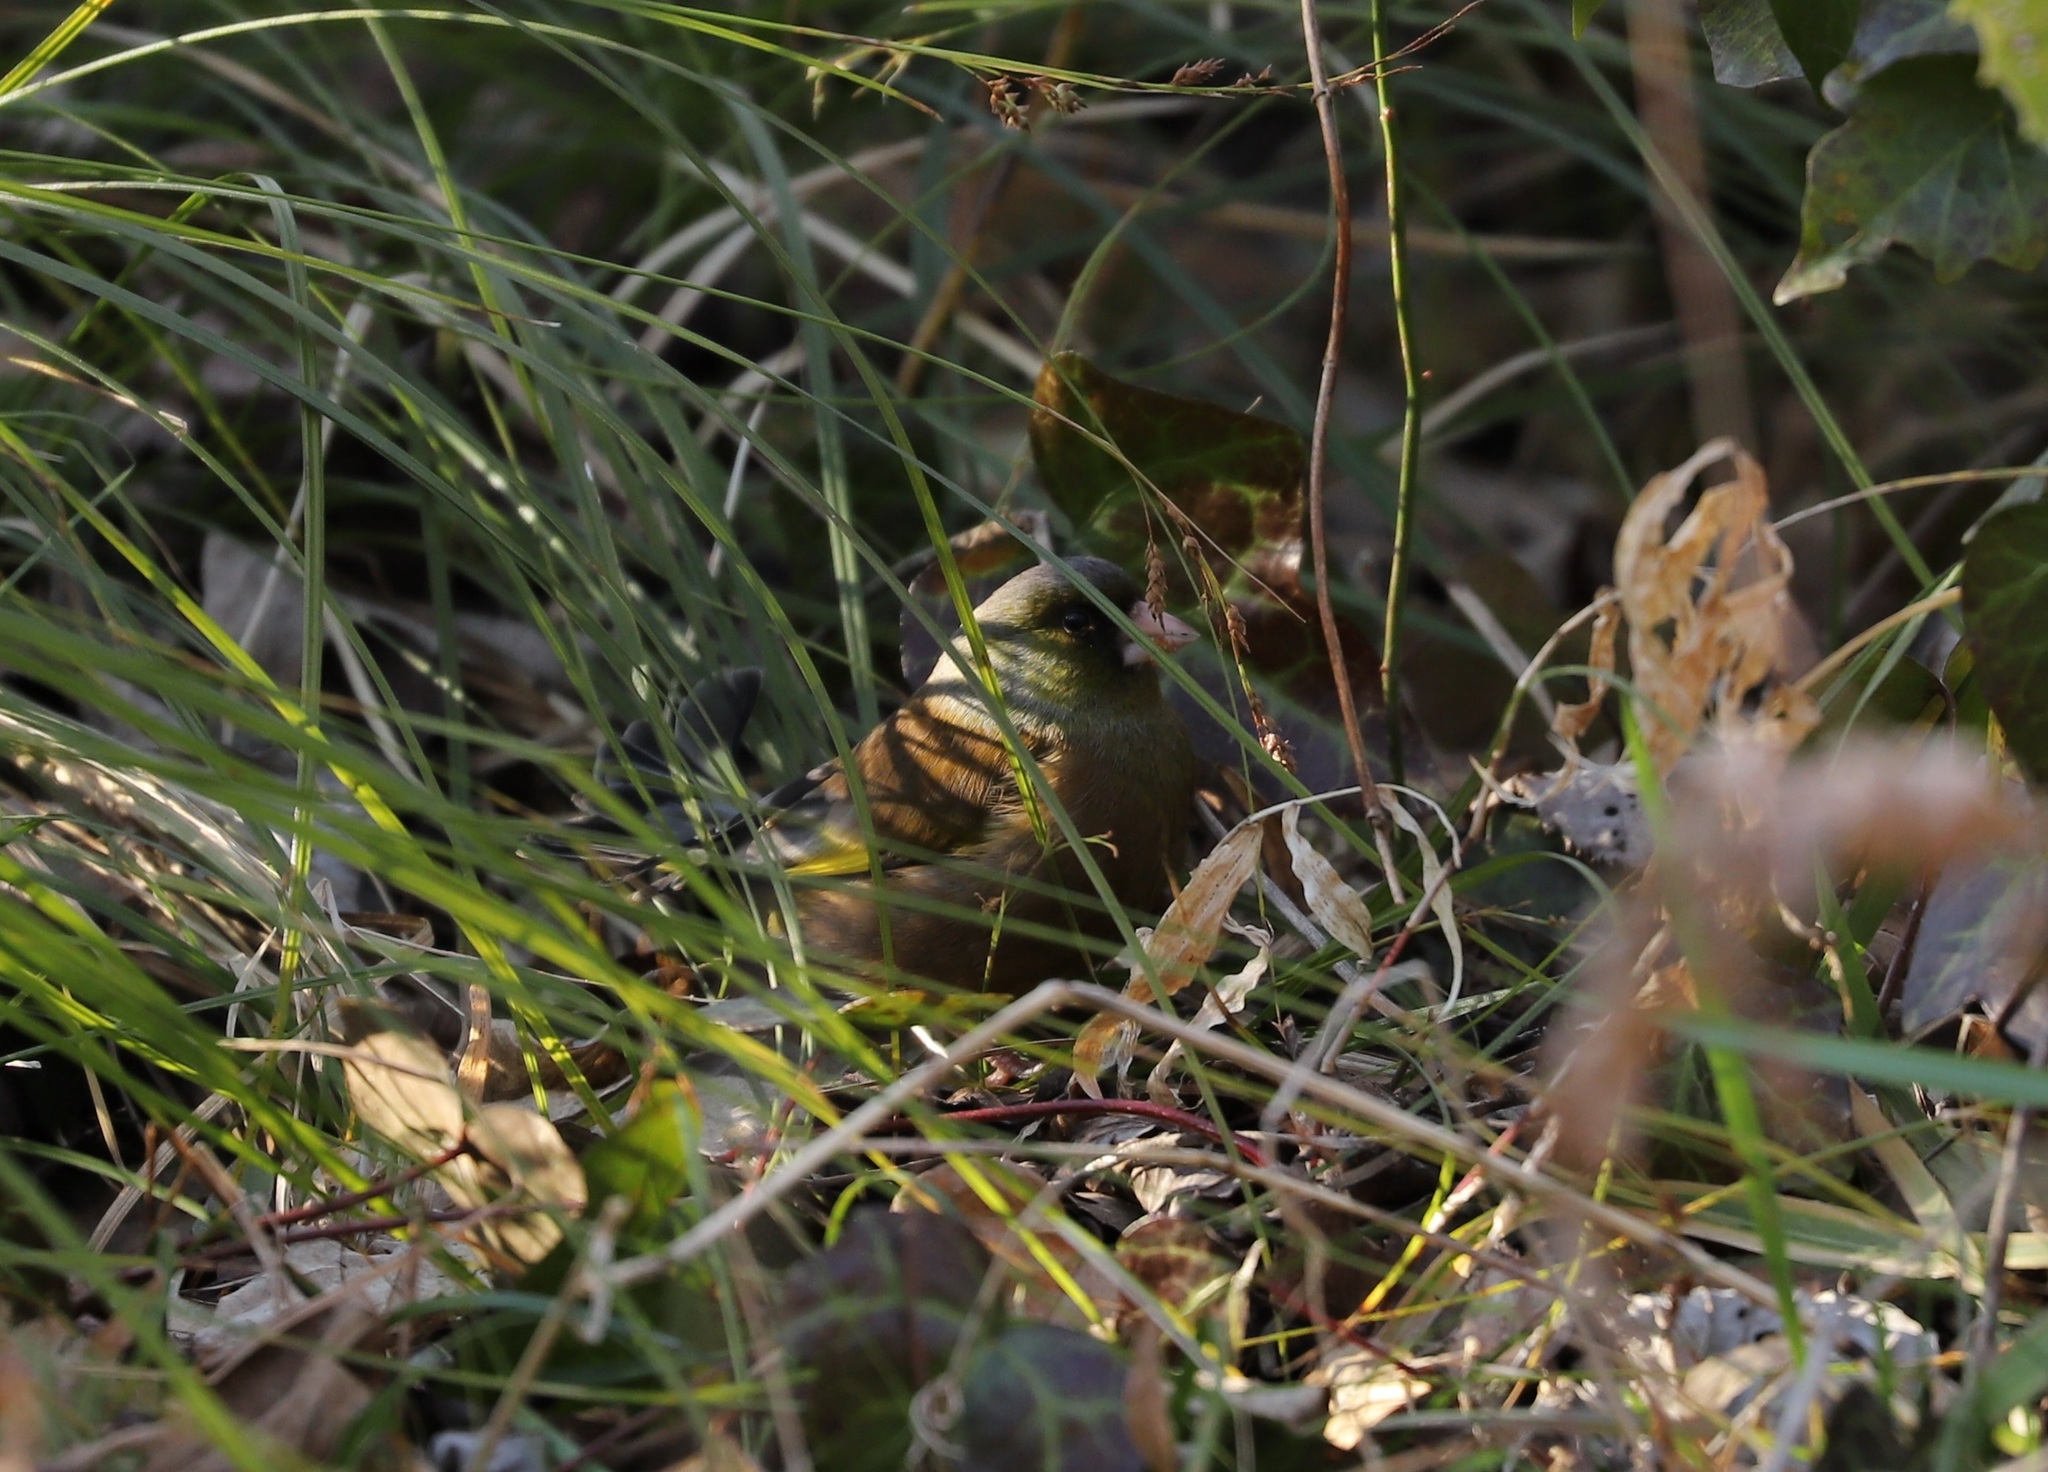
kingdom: Plantae
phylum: Tracheophyta
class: Liliopsida
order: Poales
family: Poaceae
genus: Chloris
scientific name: Chloris sinica
